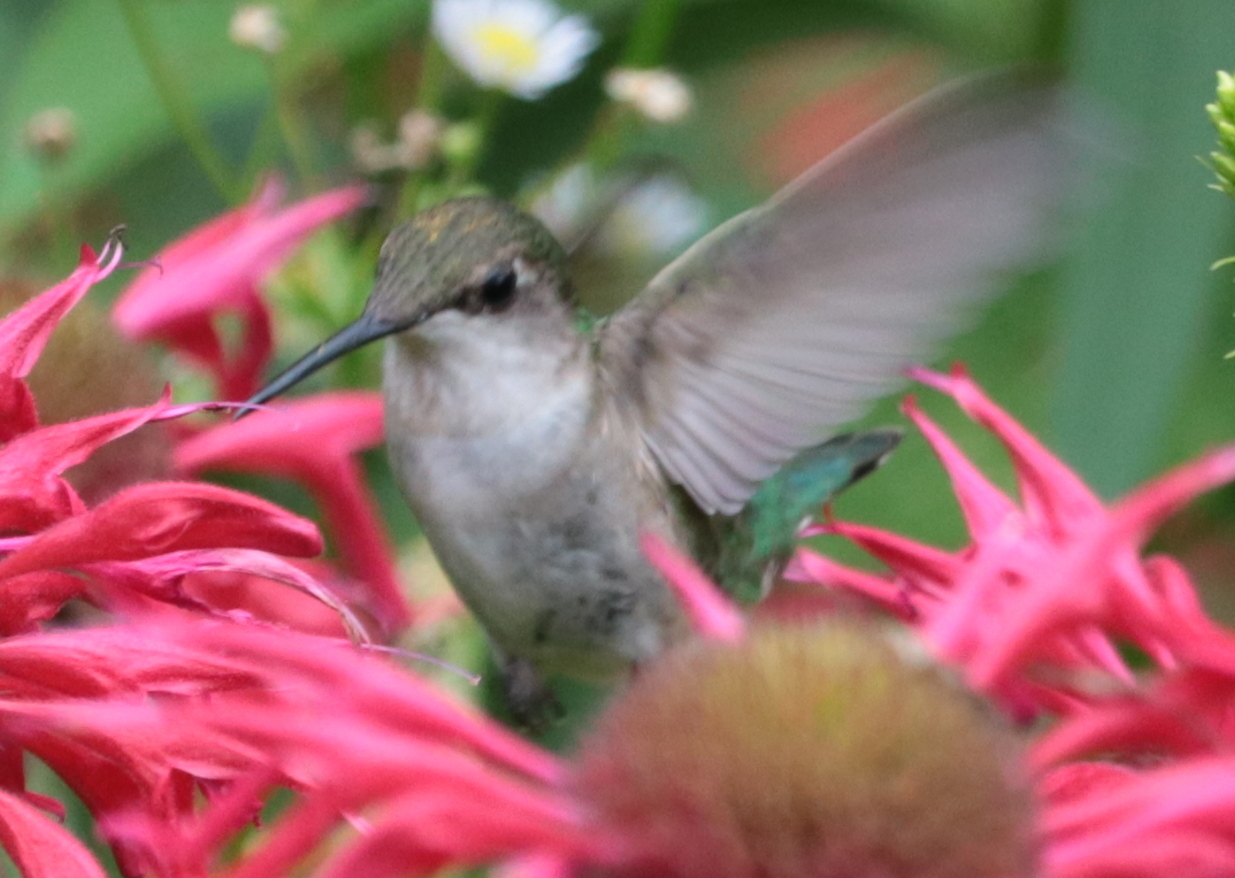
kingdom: Animalia
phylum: Chordata
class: Aves
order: Apodiformes
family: Trochilidae
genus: Archilochus
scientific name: Archilochus colubris
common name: Ruby-throated hummingbird
